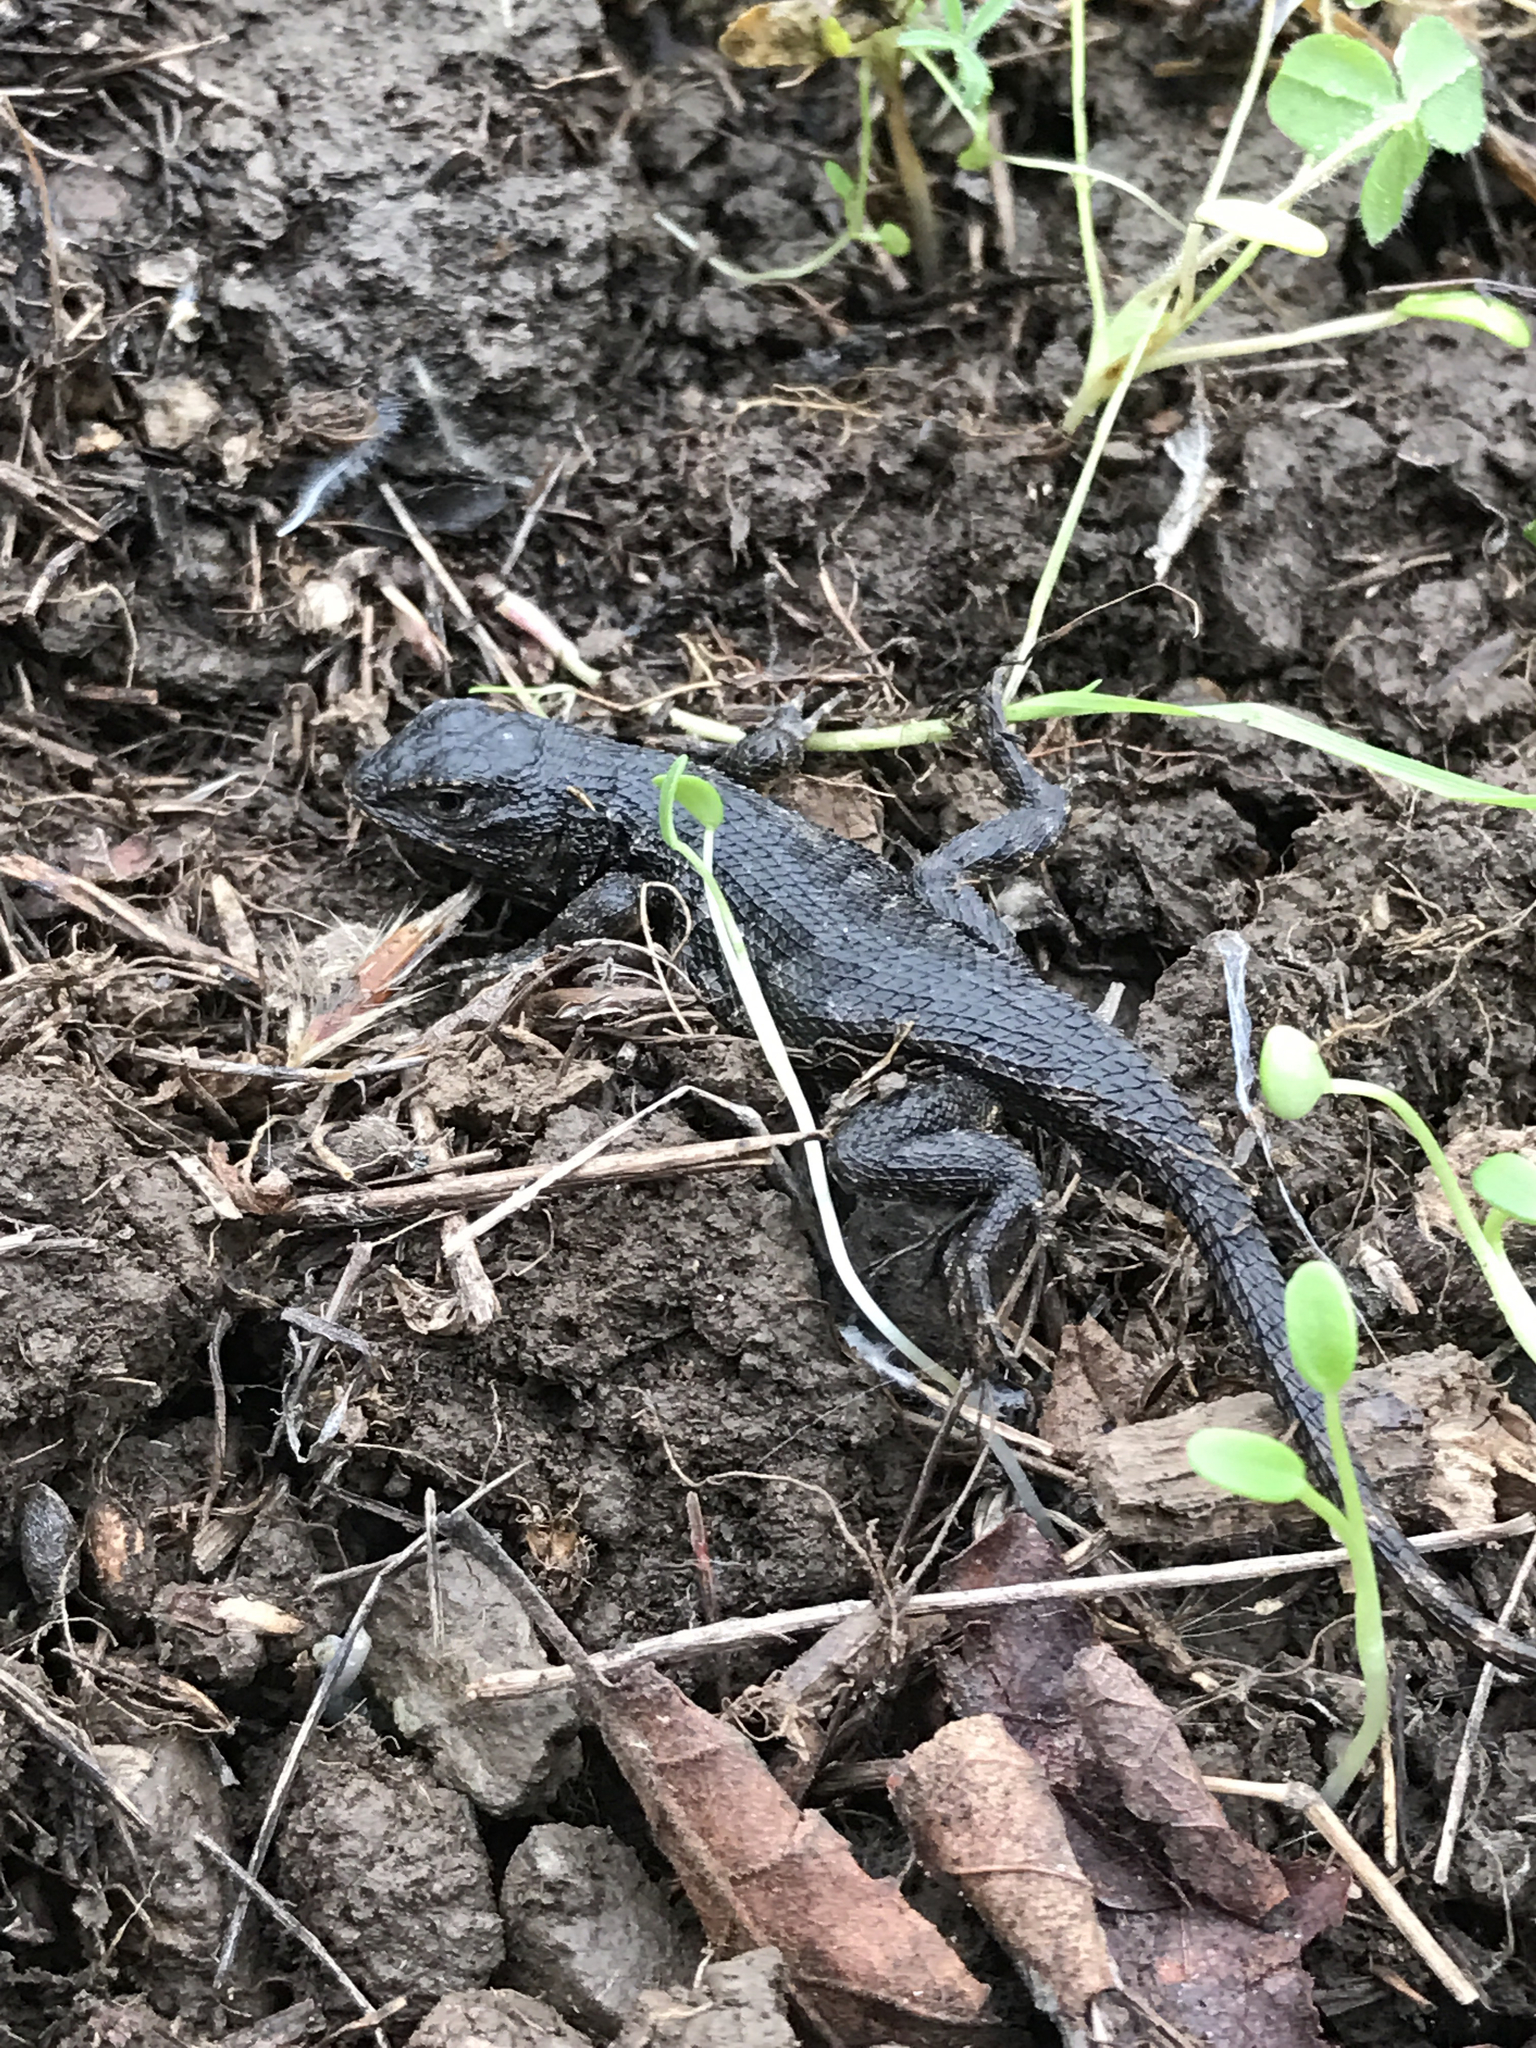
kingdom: Animalia
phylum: Chordata
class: Squamata
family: Phrynosomatidae
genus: Sceloporus
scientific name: Sceloporus occidentalis
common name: Western fence lizard
